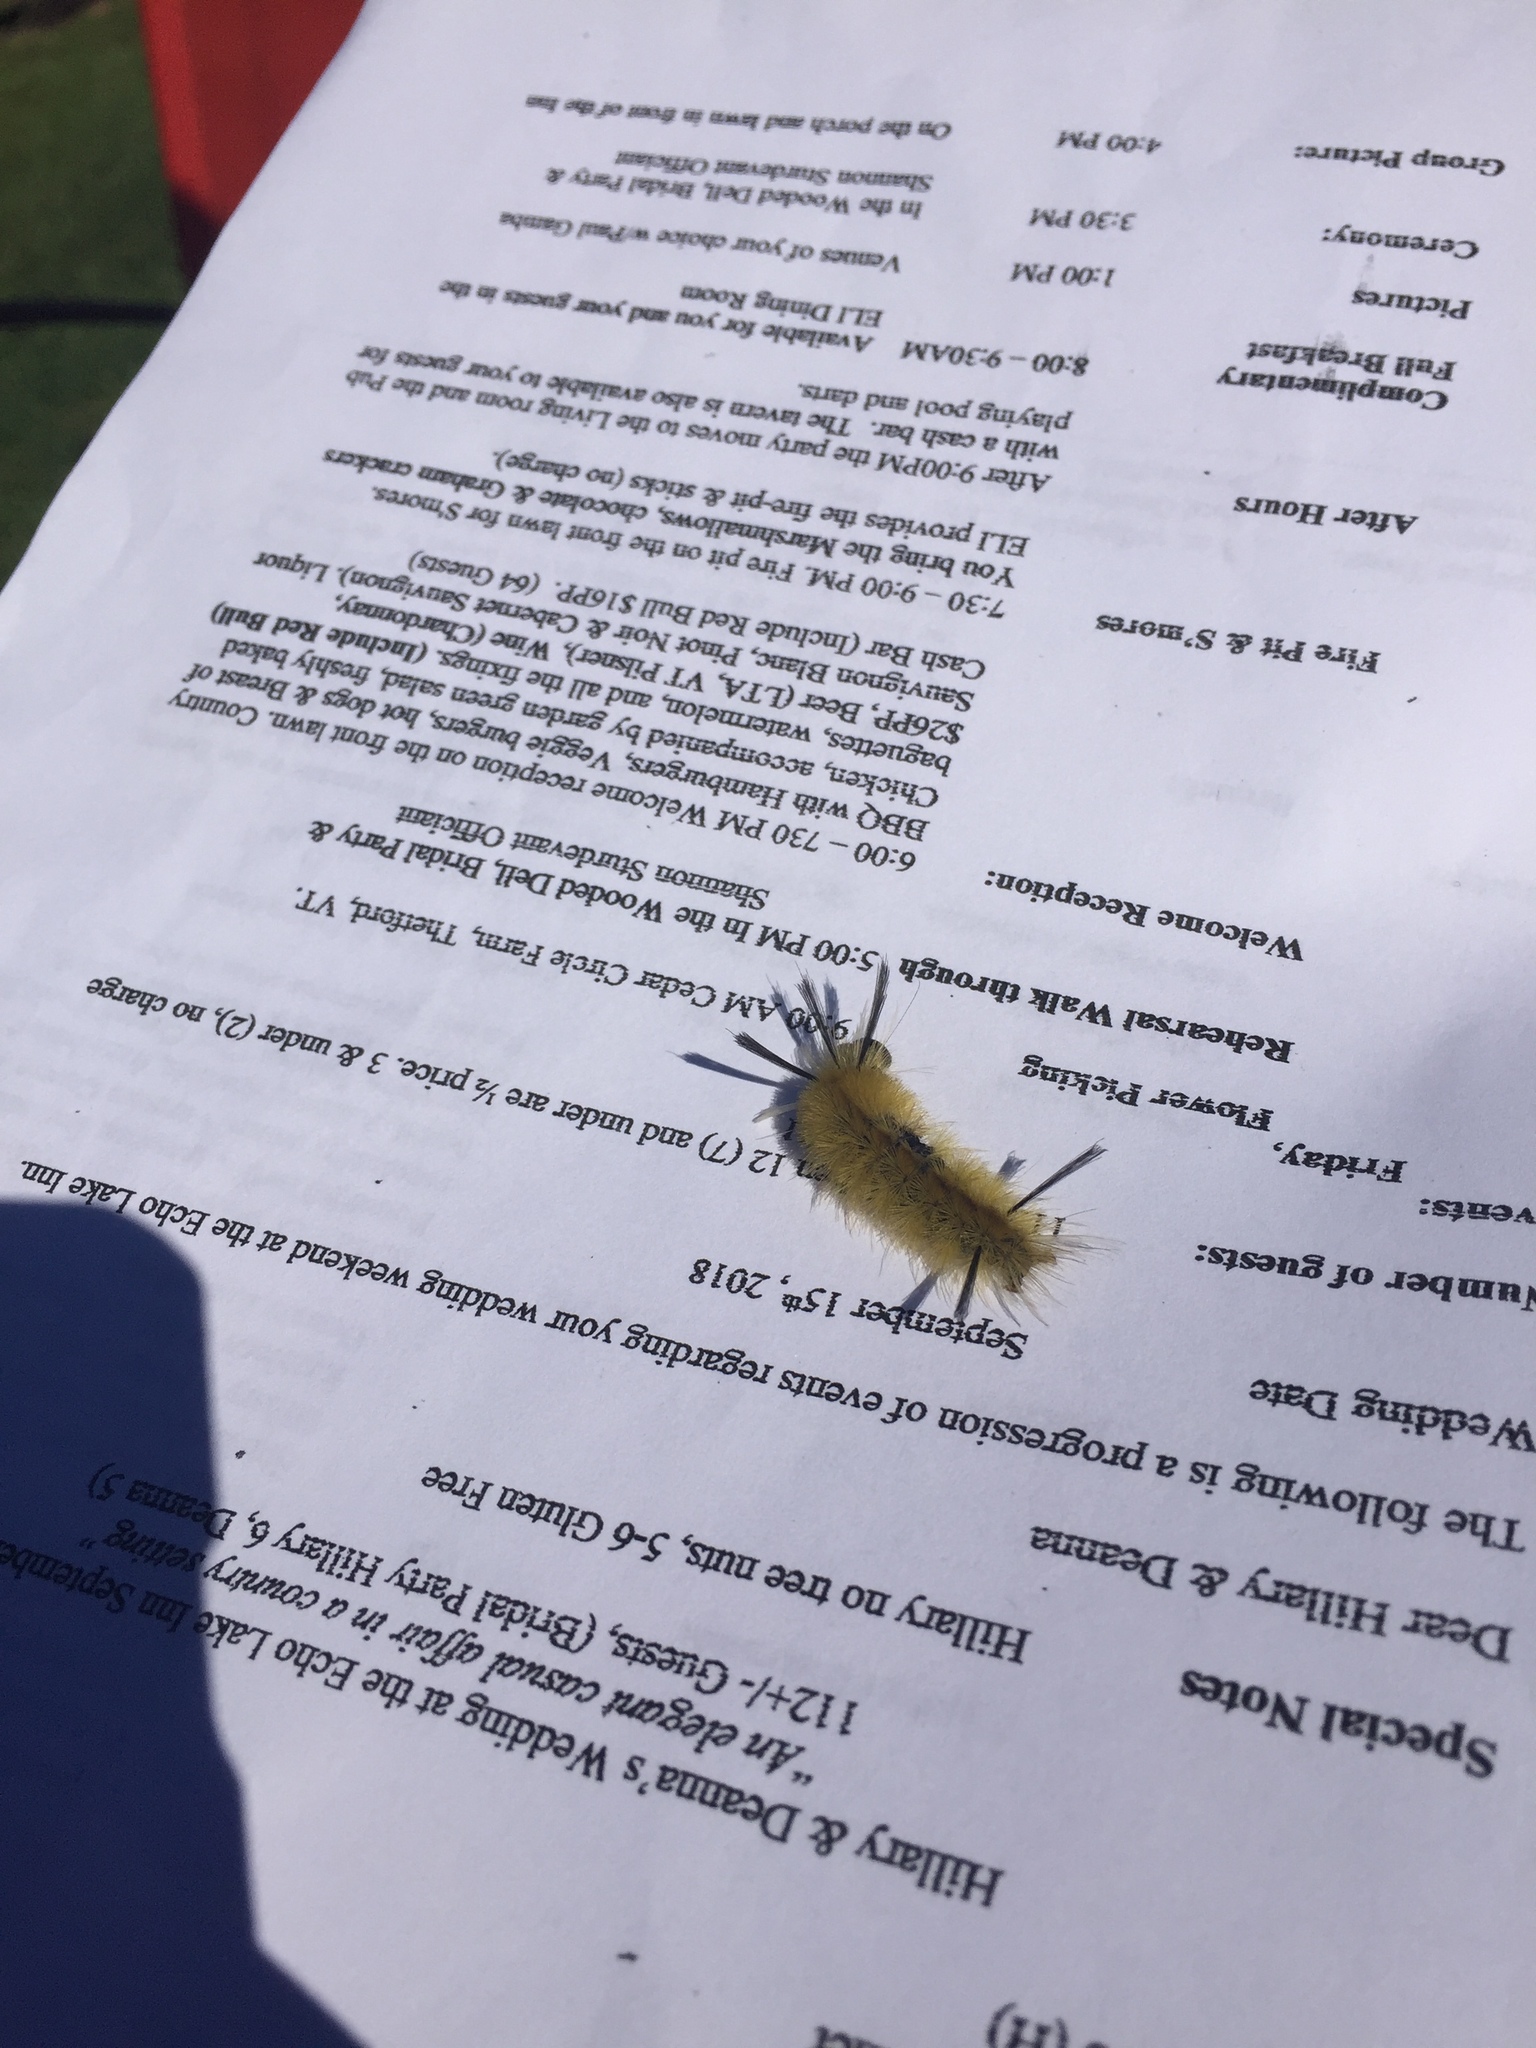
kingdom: Animalia
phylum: Arthropoda
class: Insecta
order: Lepidoptera
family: Erebidae
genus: Halysidota
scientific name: Halysidota tessellaris
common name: Banded tussock moth
